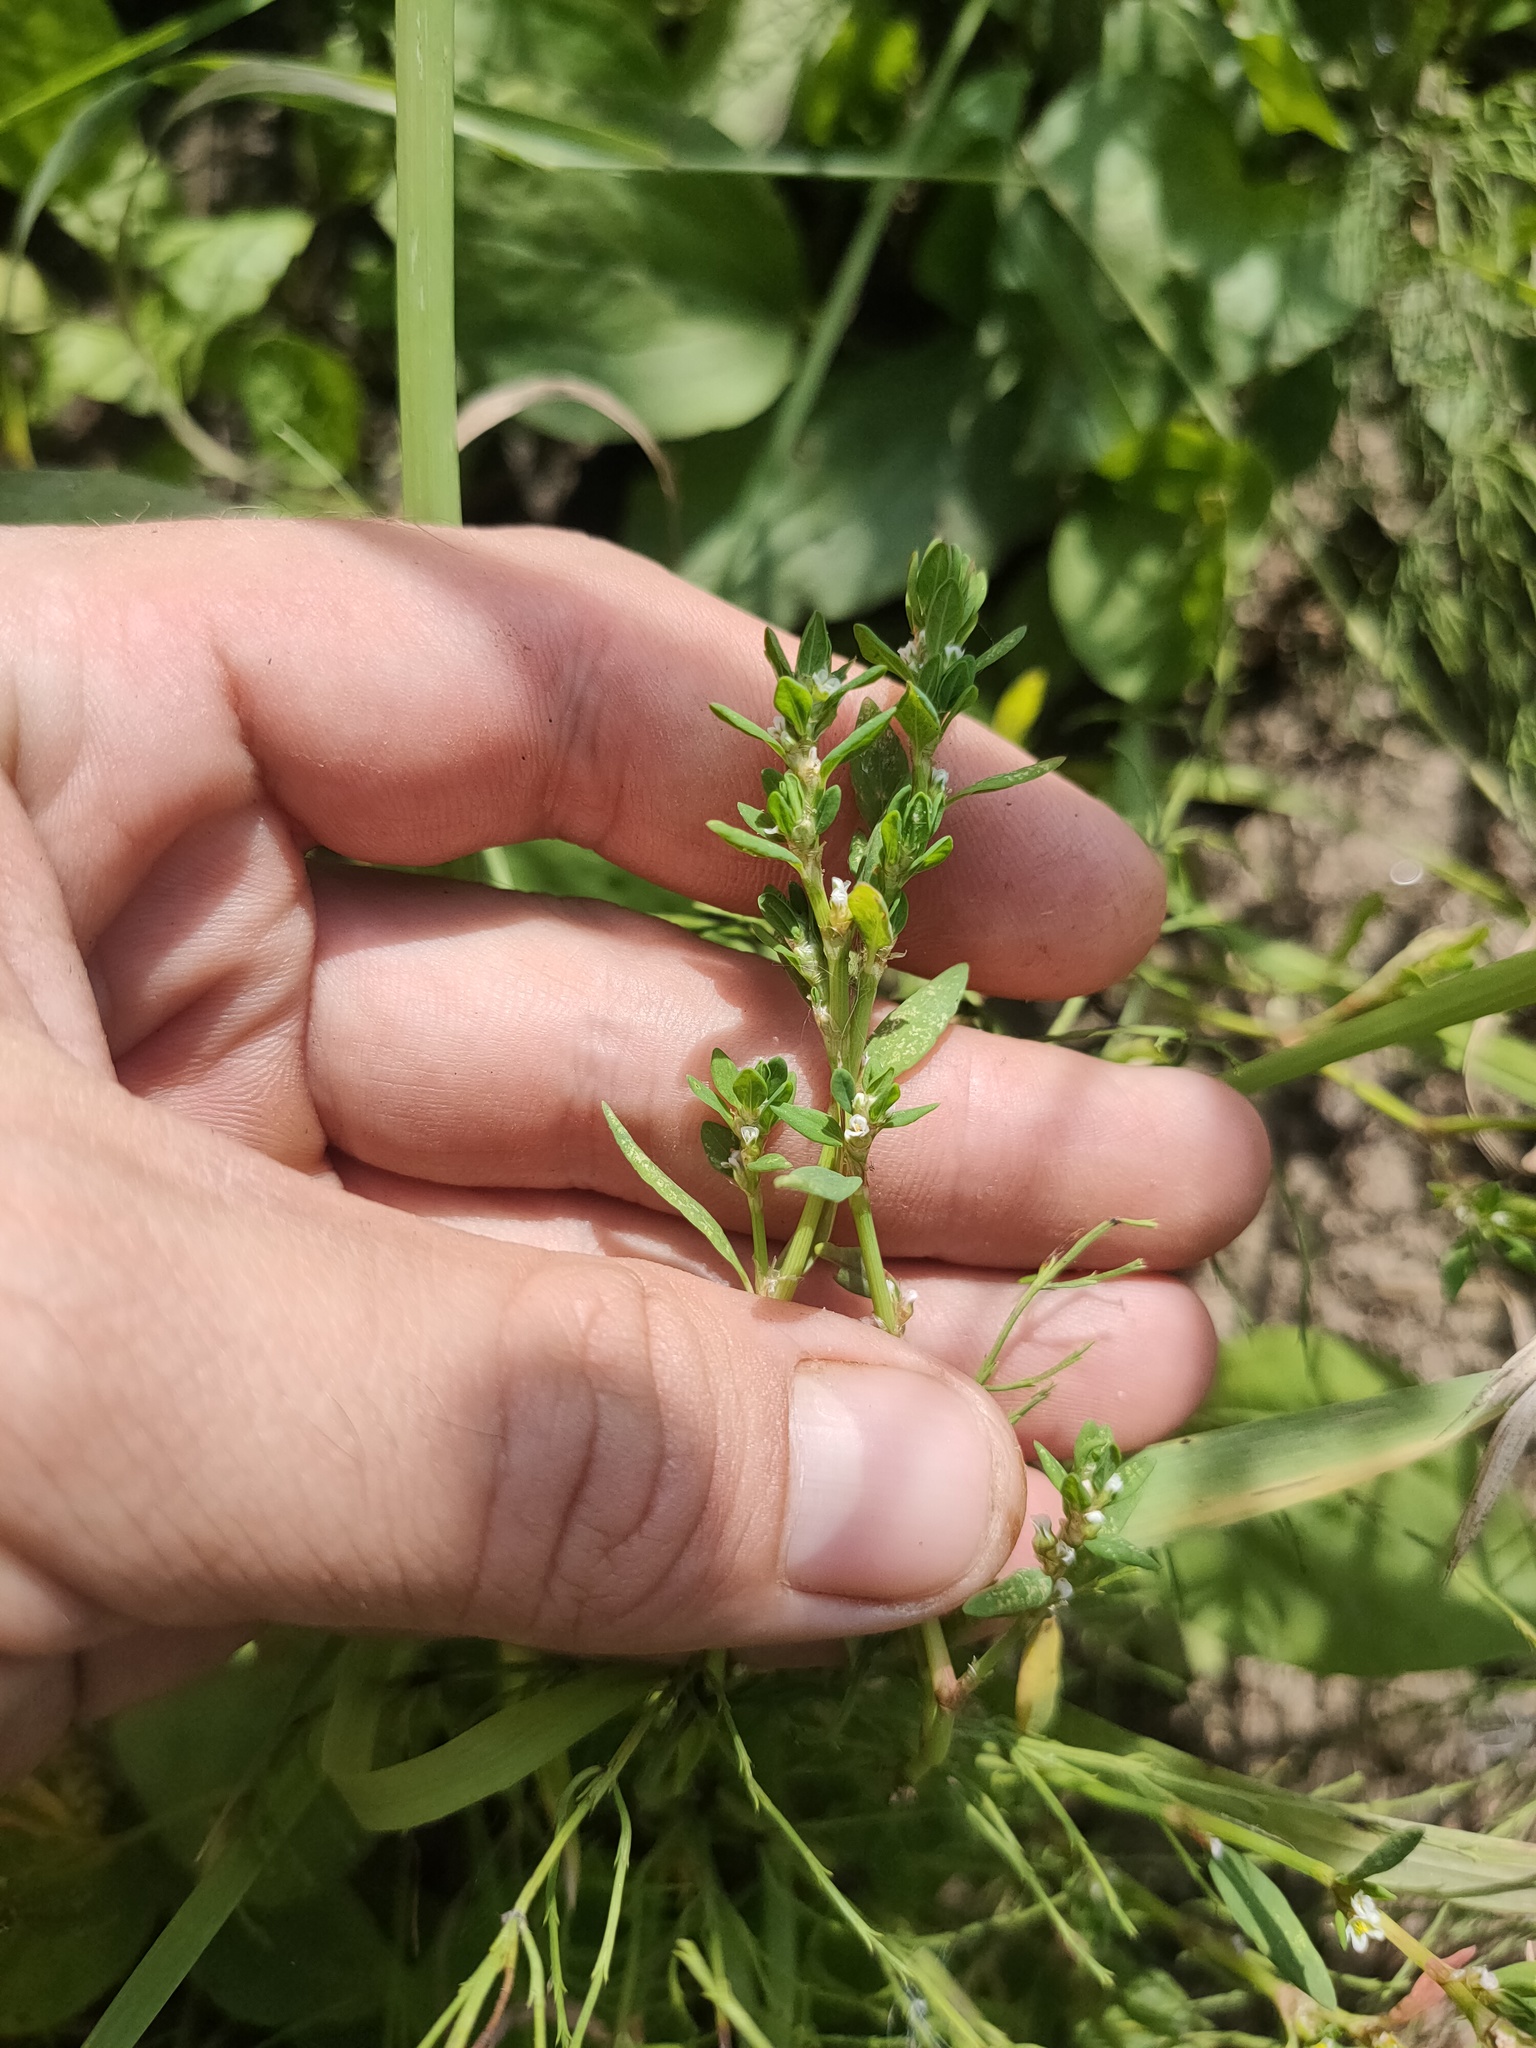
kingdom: Plantae
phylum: Tracheophyta
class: Magnoliopsida
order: Caryophyllales
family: Polygonaceae
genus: Polygonum
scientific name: Polygonum
